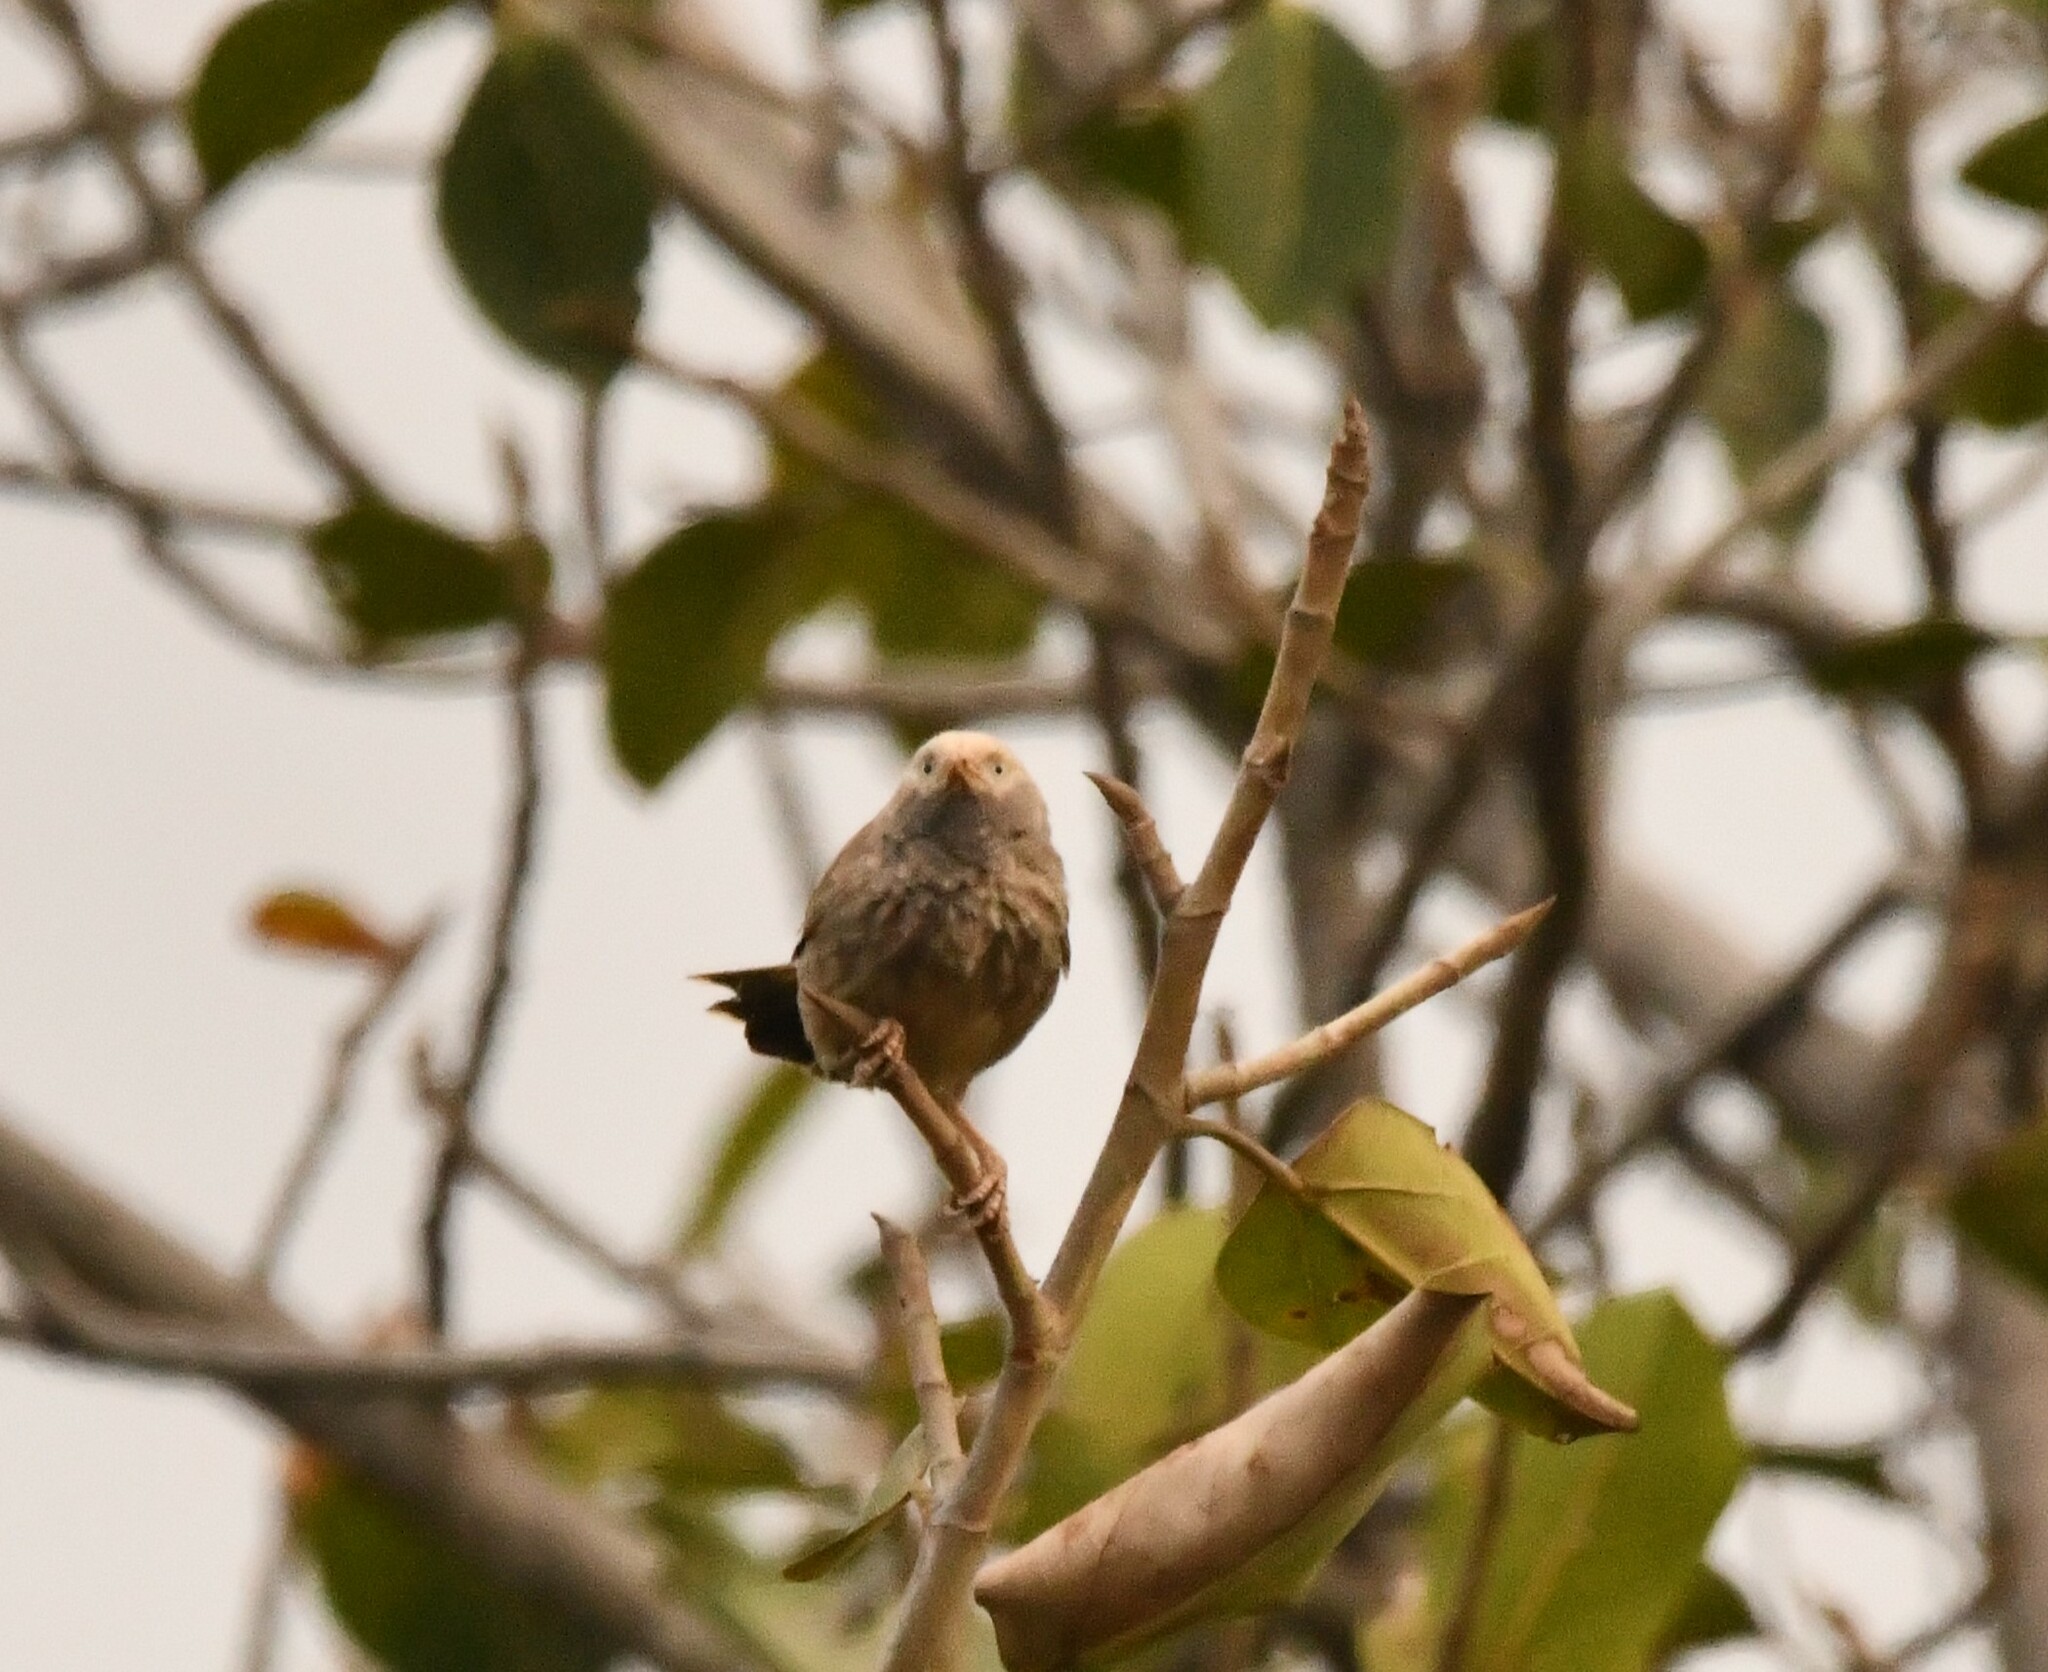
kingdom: Animalia
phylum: Chordata
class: Aves
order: Passeriformes
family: Leiothrichidae
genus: Turdoides
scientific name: Turdoides affinis
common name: Yellow-billed babbler
